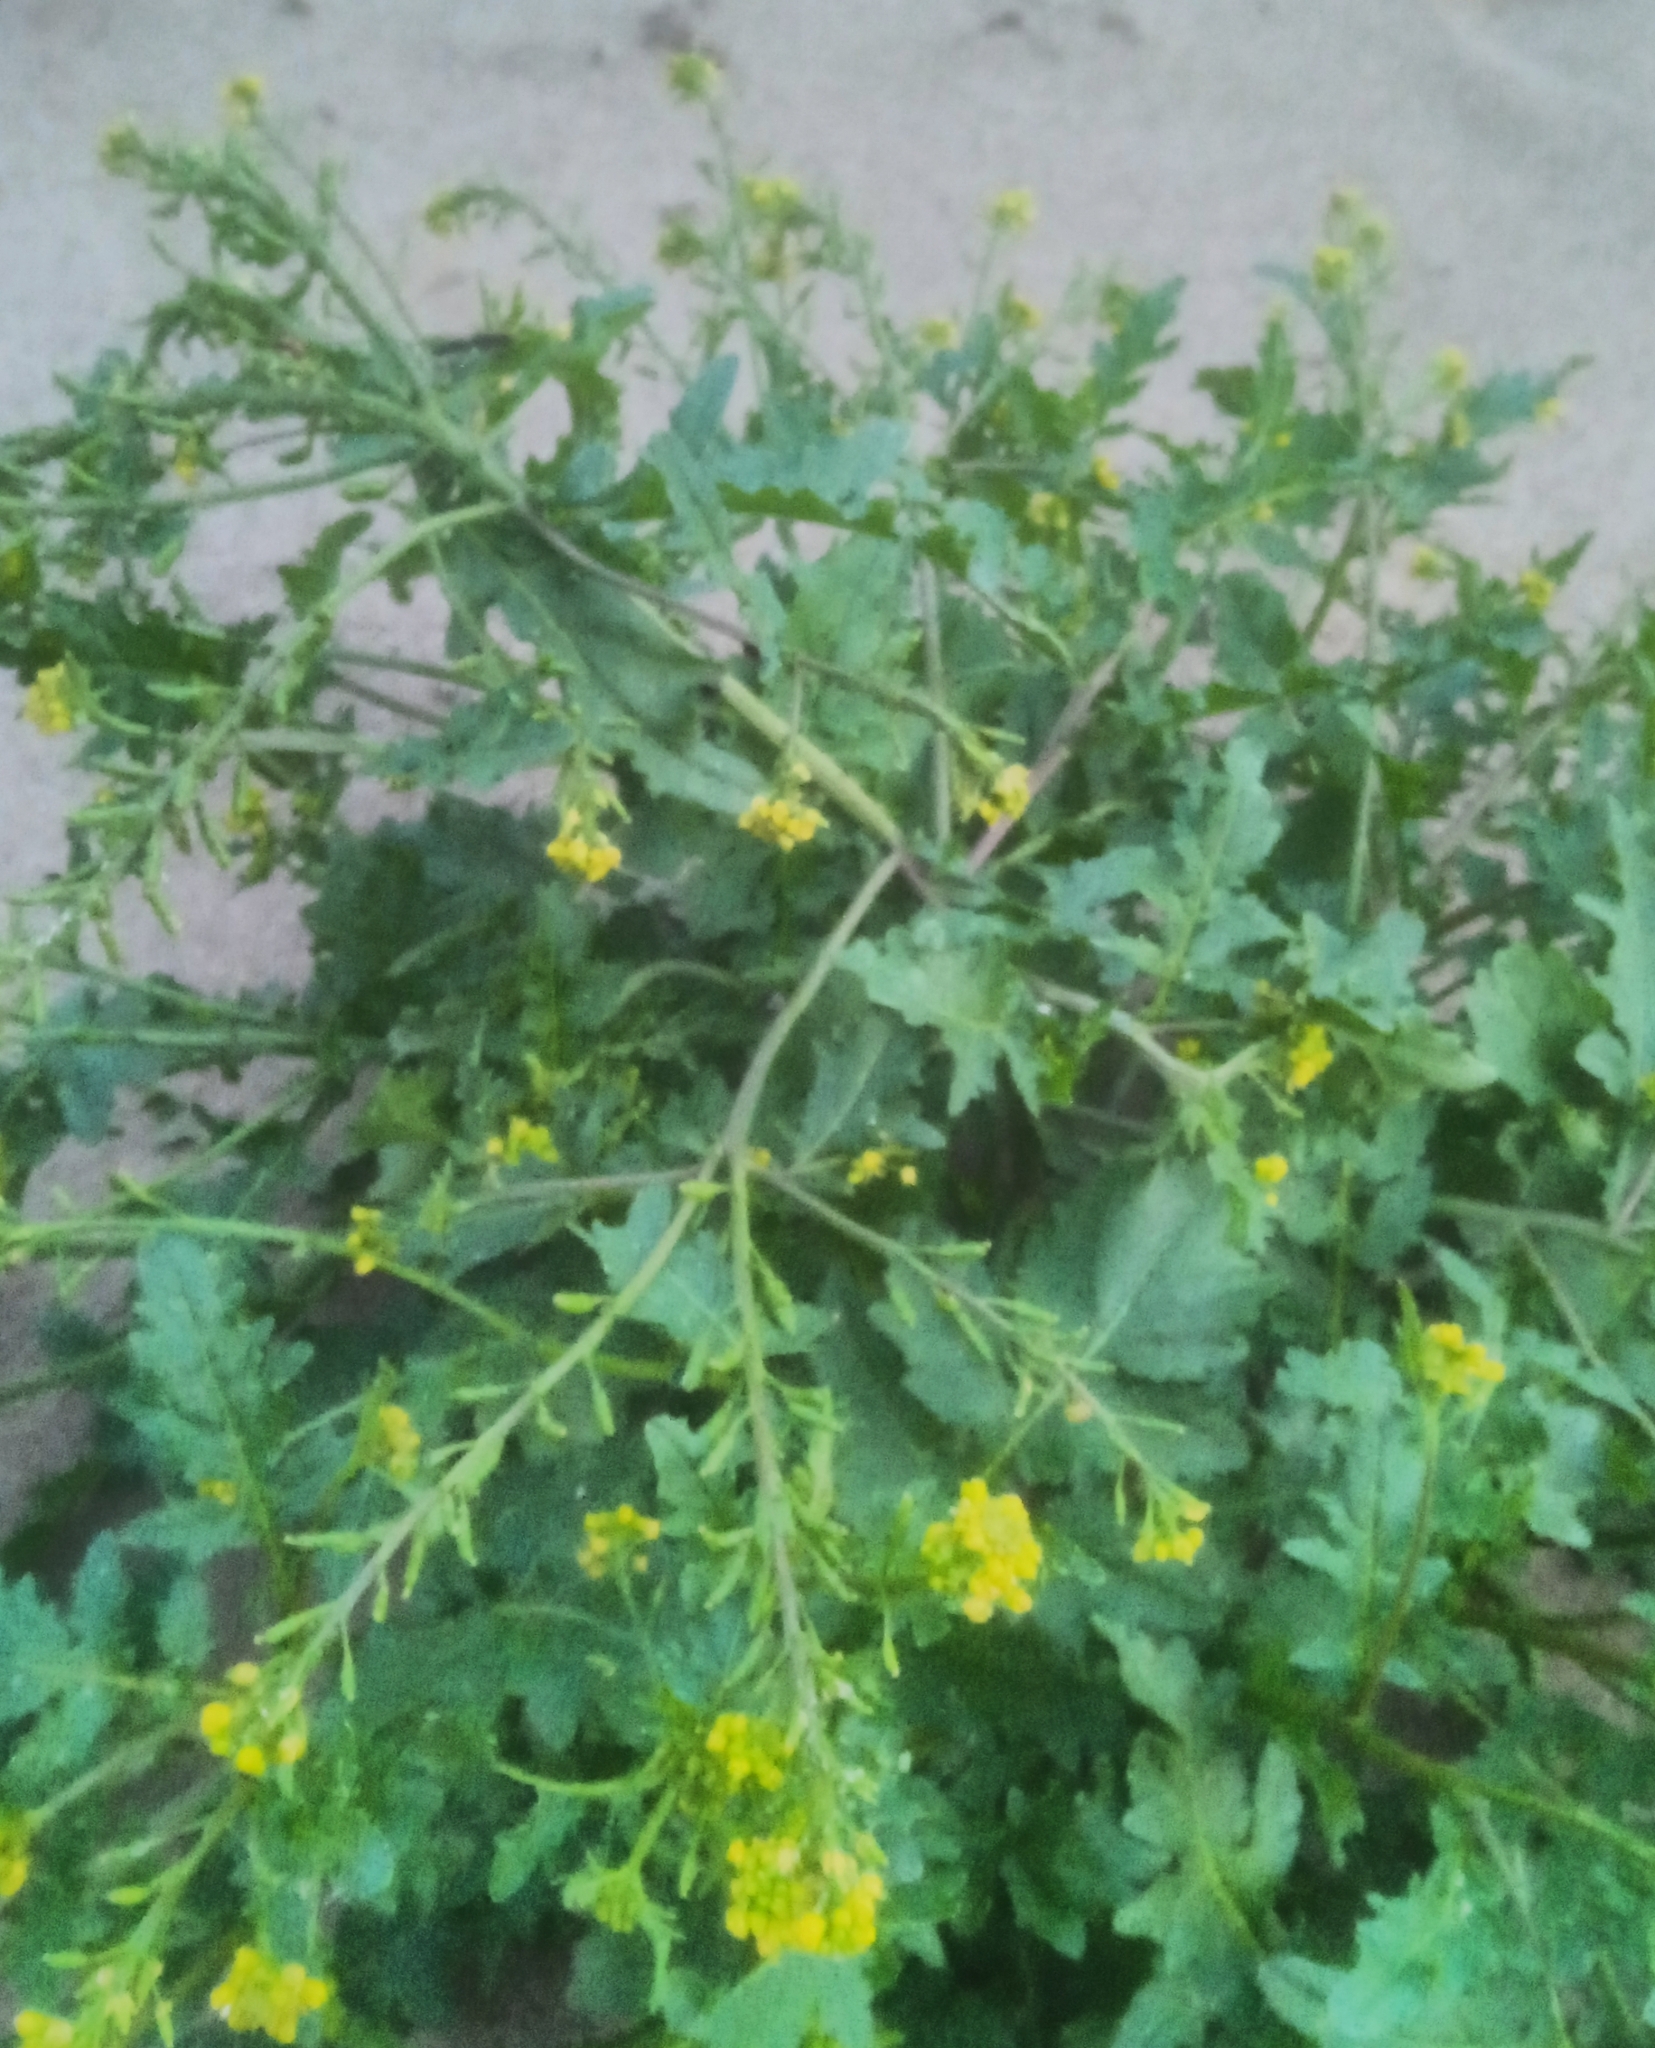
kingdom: Plantae
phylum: Tracheophyta
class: Magnoliopsida
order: Brassicales
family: Brassicaceae
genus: Rorippa
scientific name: Rorippa palustris
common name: Marsh yellow-cress
